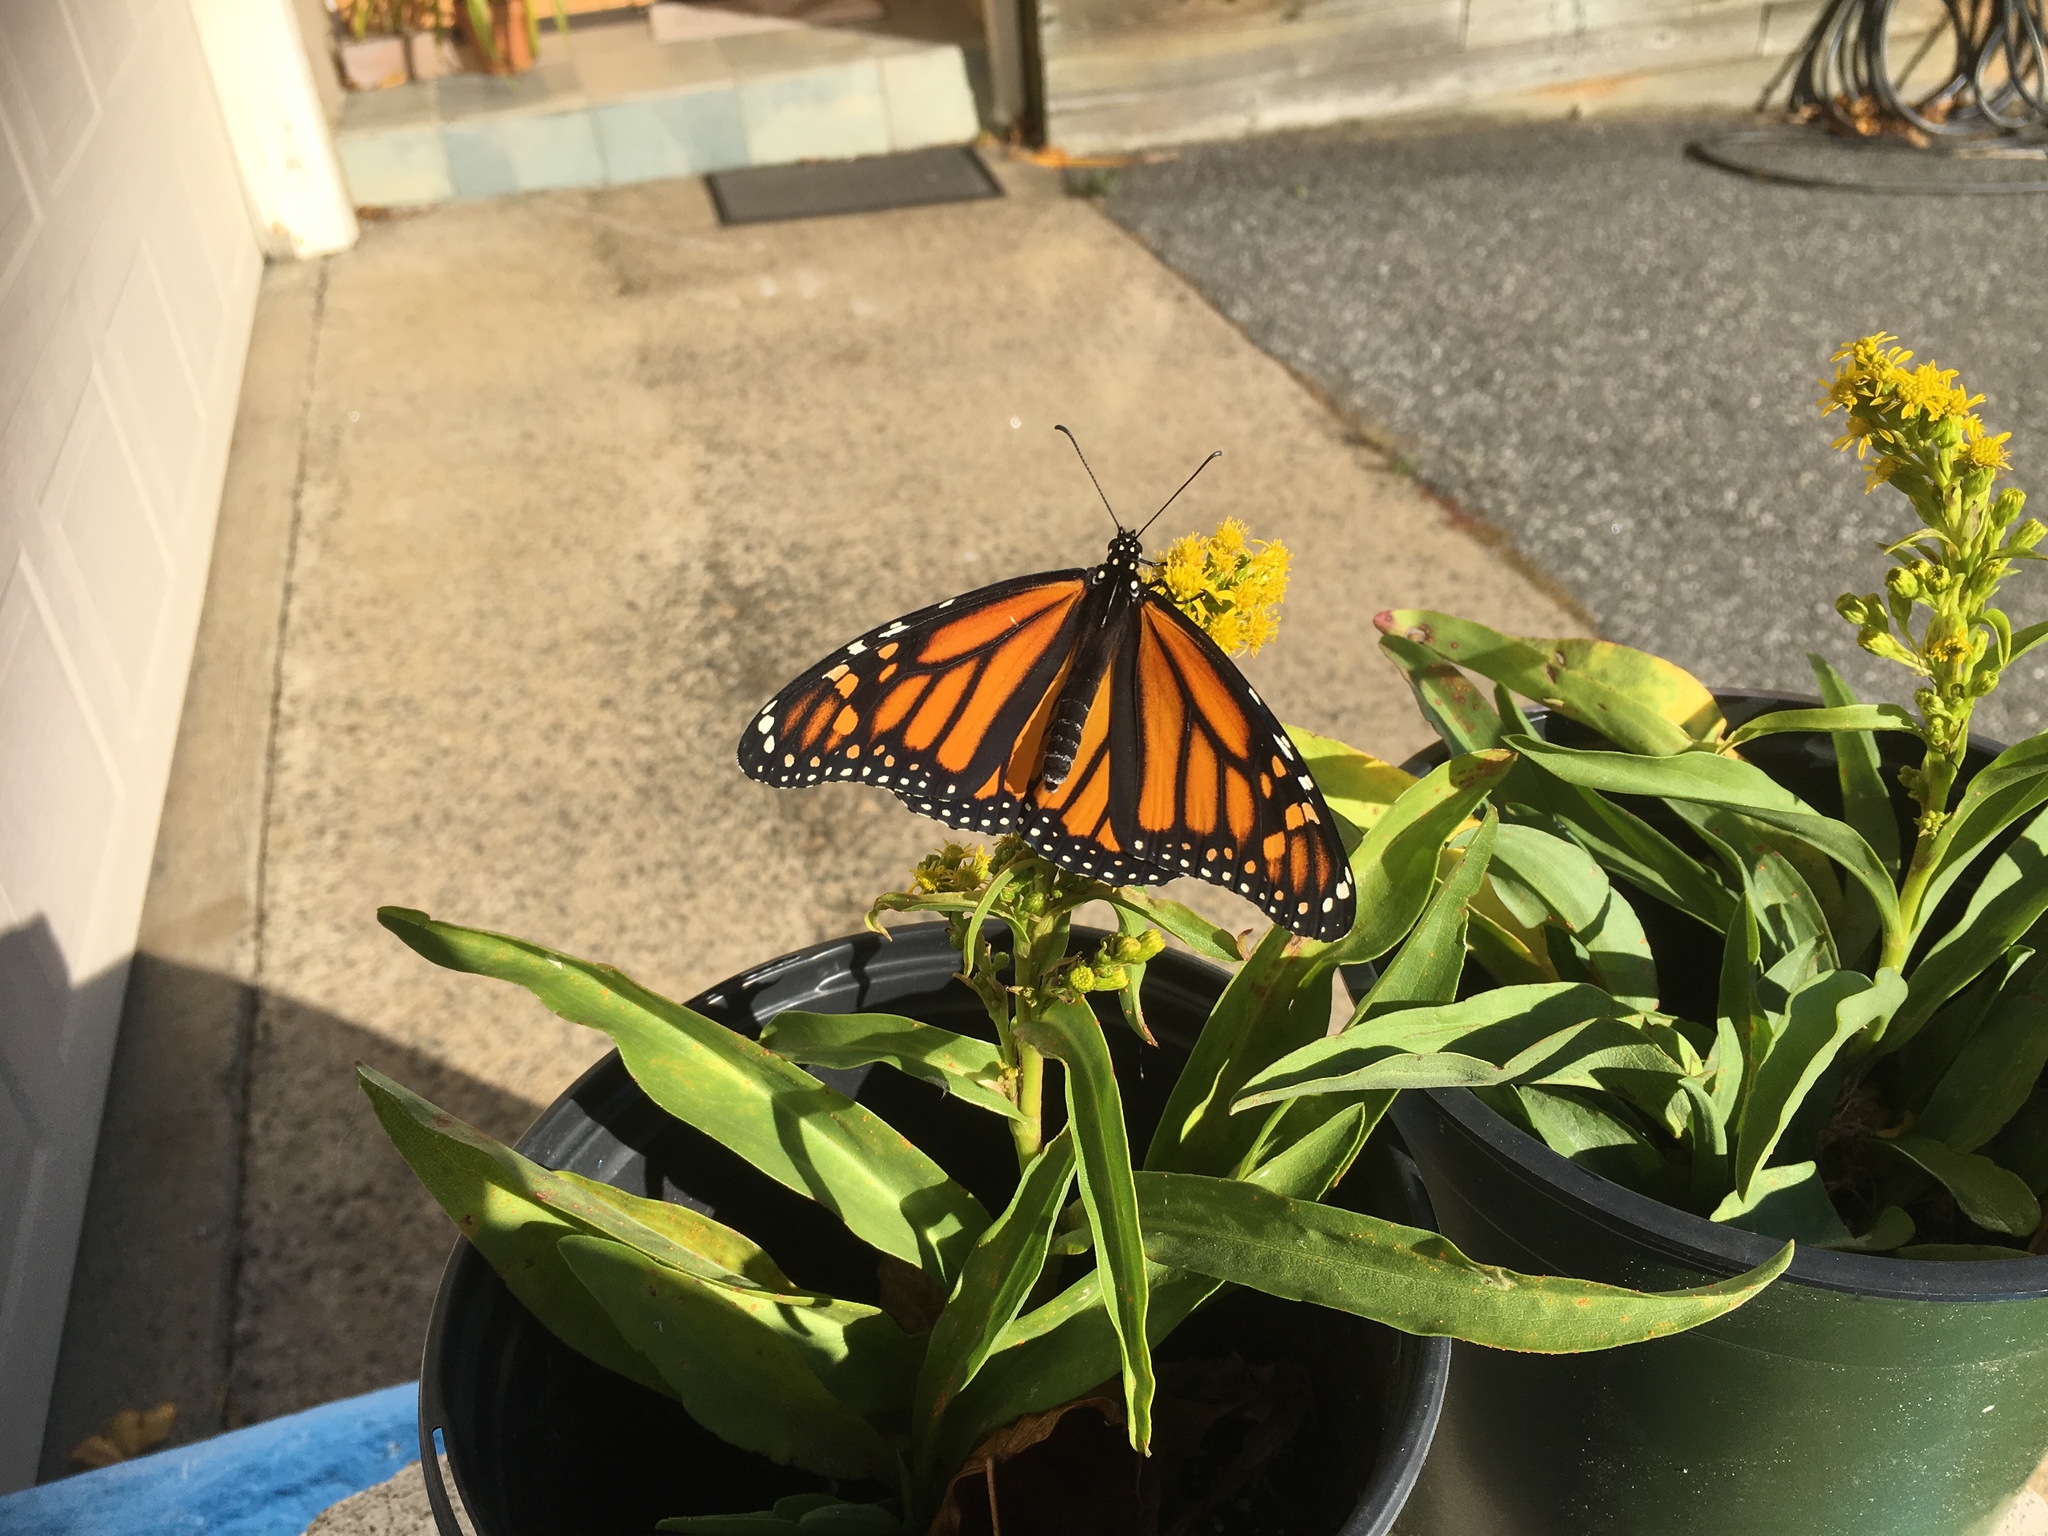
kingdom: Animalia
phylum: Arthropoda
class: Insecta
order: Lepidoptera
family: Nymphalidae
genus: Danaus
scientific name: Danaus plexippus
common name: Monarch
